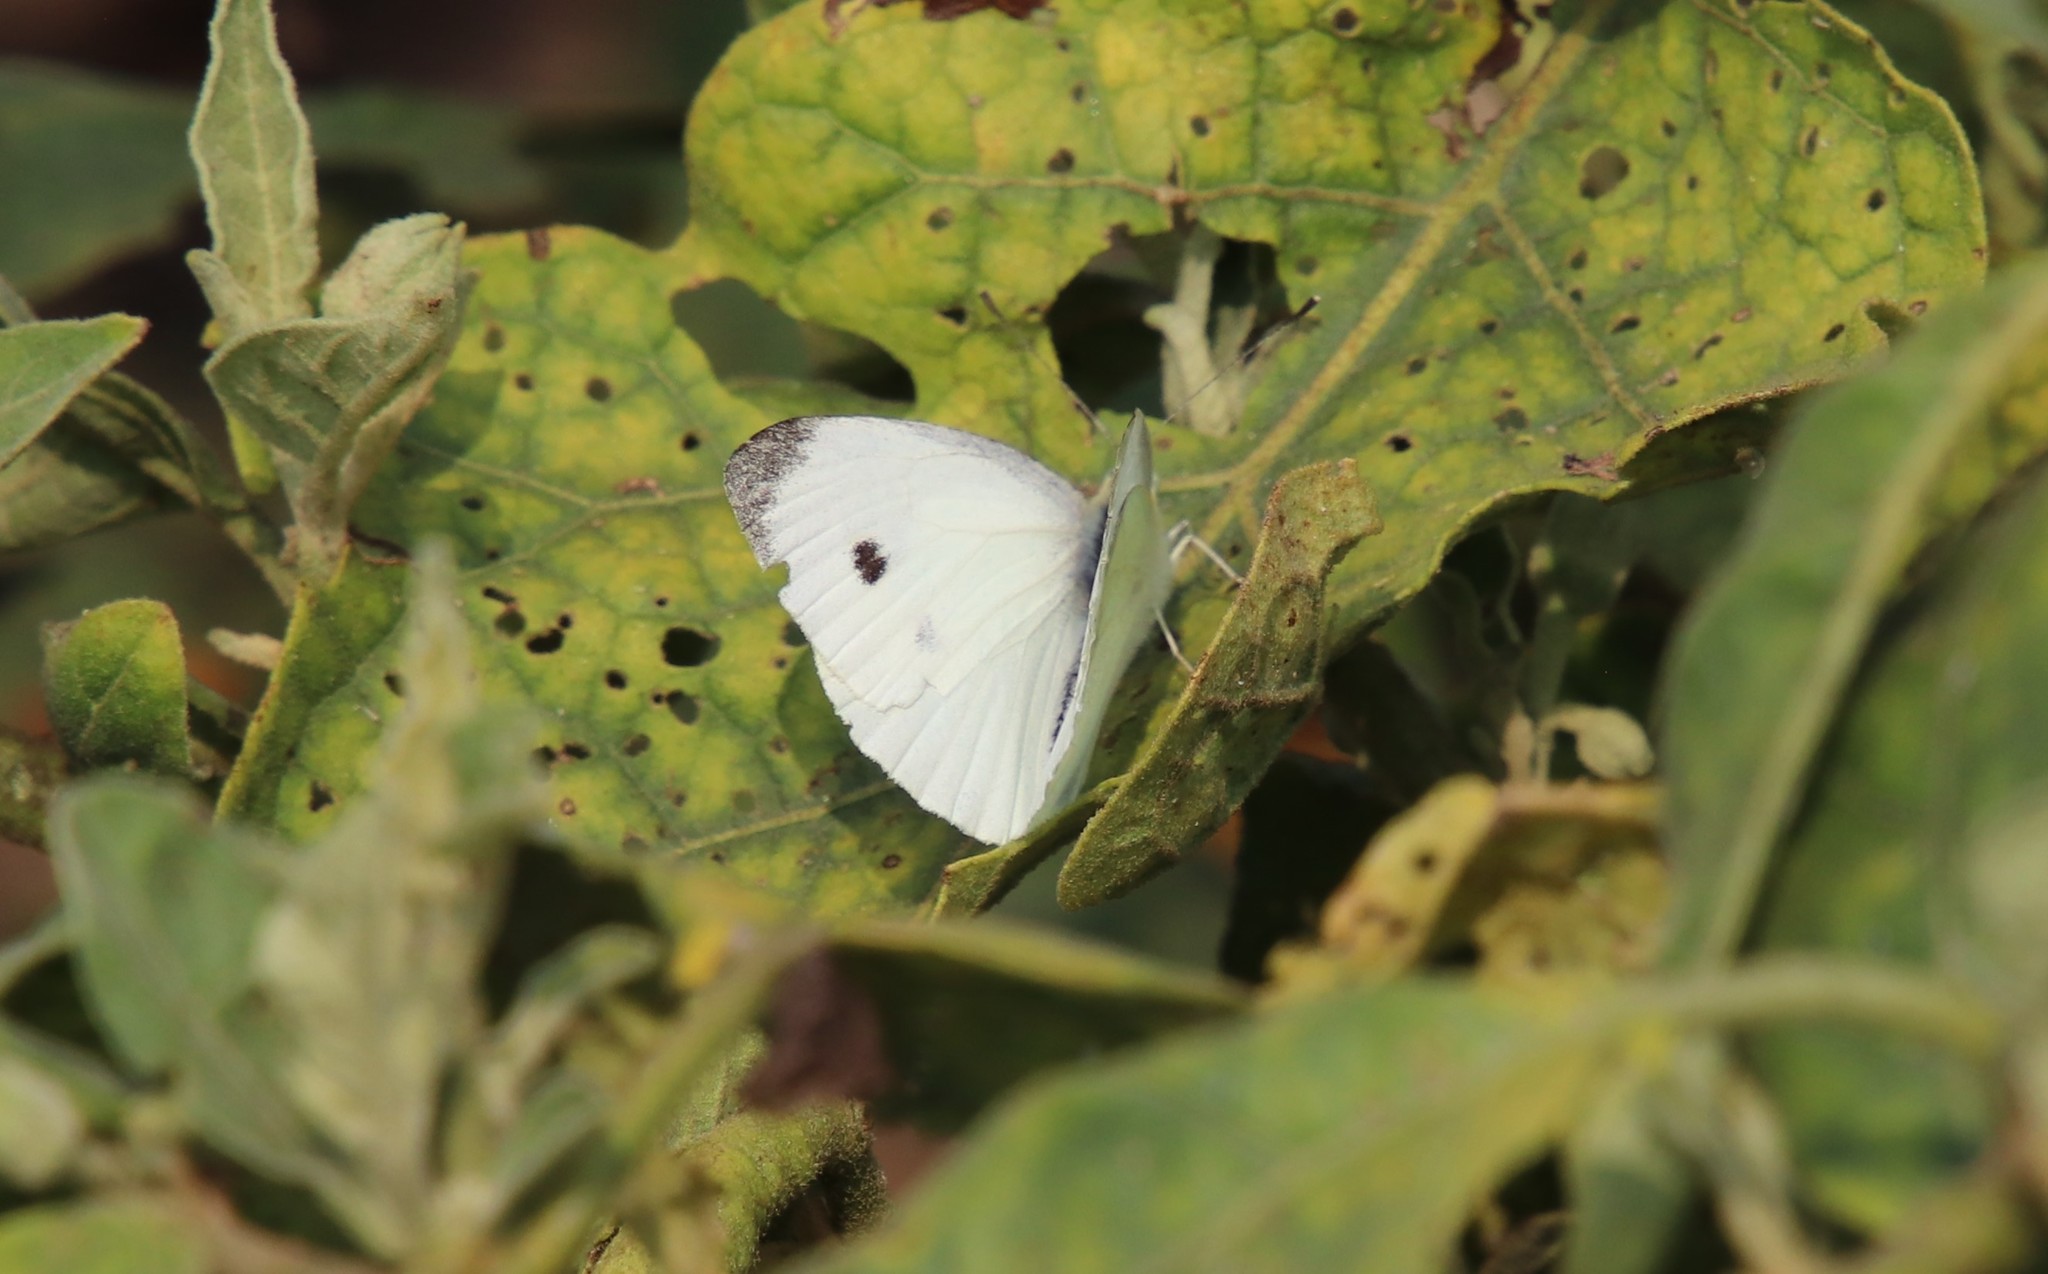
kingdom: Animalia
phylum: Arthropoda
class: Insecta
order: Lepidoptera
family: Pieridae
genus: Pieris
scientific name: Pieris rapae
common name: Small white
